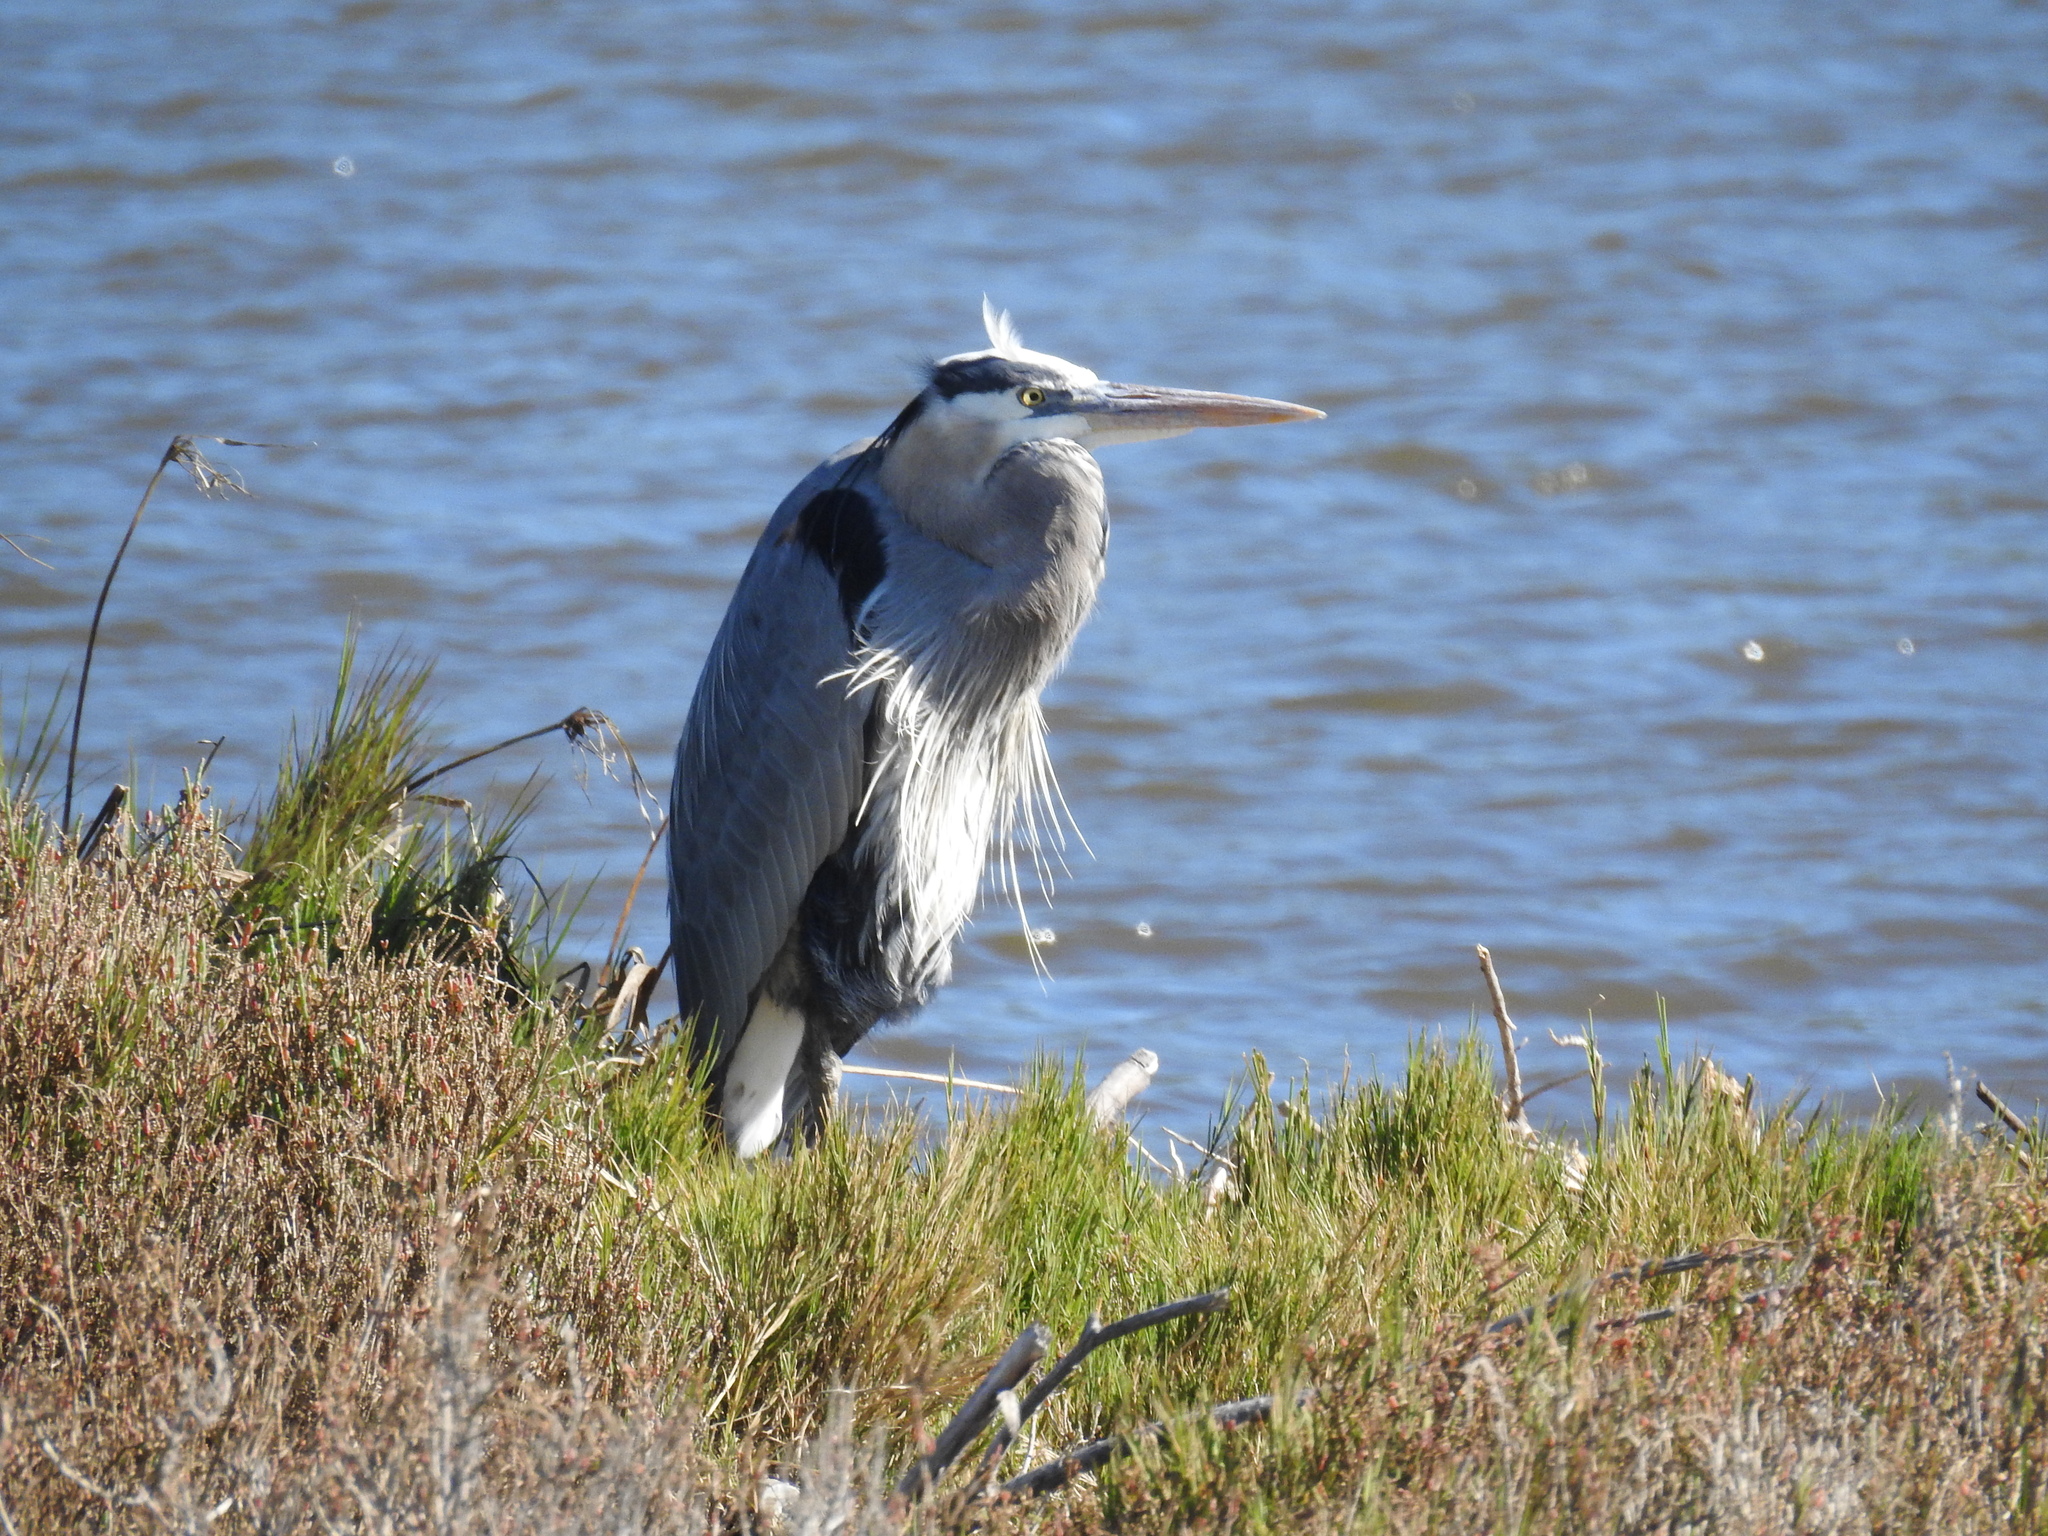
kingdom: Animalia
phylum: Chordata
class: Aves
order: Pelecaniformes
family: Ardeidae
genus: Ardea
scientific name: Ardea herodias
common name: Great blue heron
